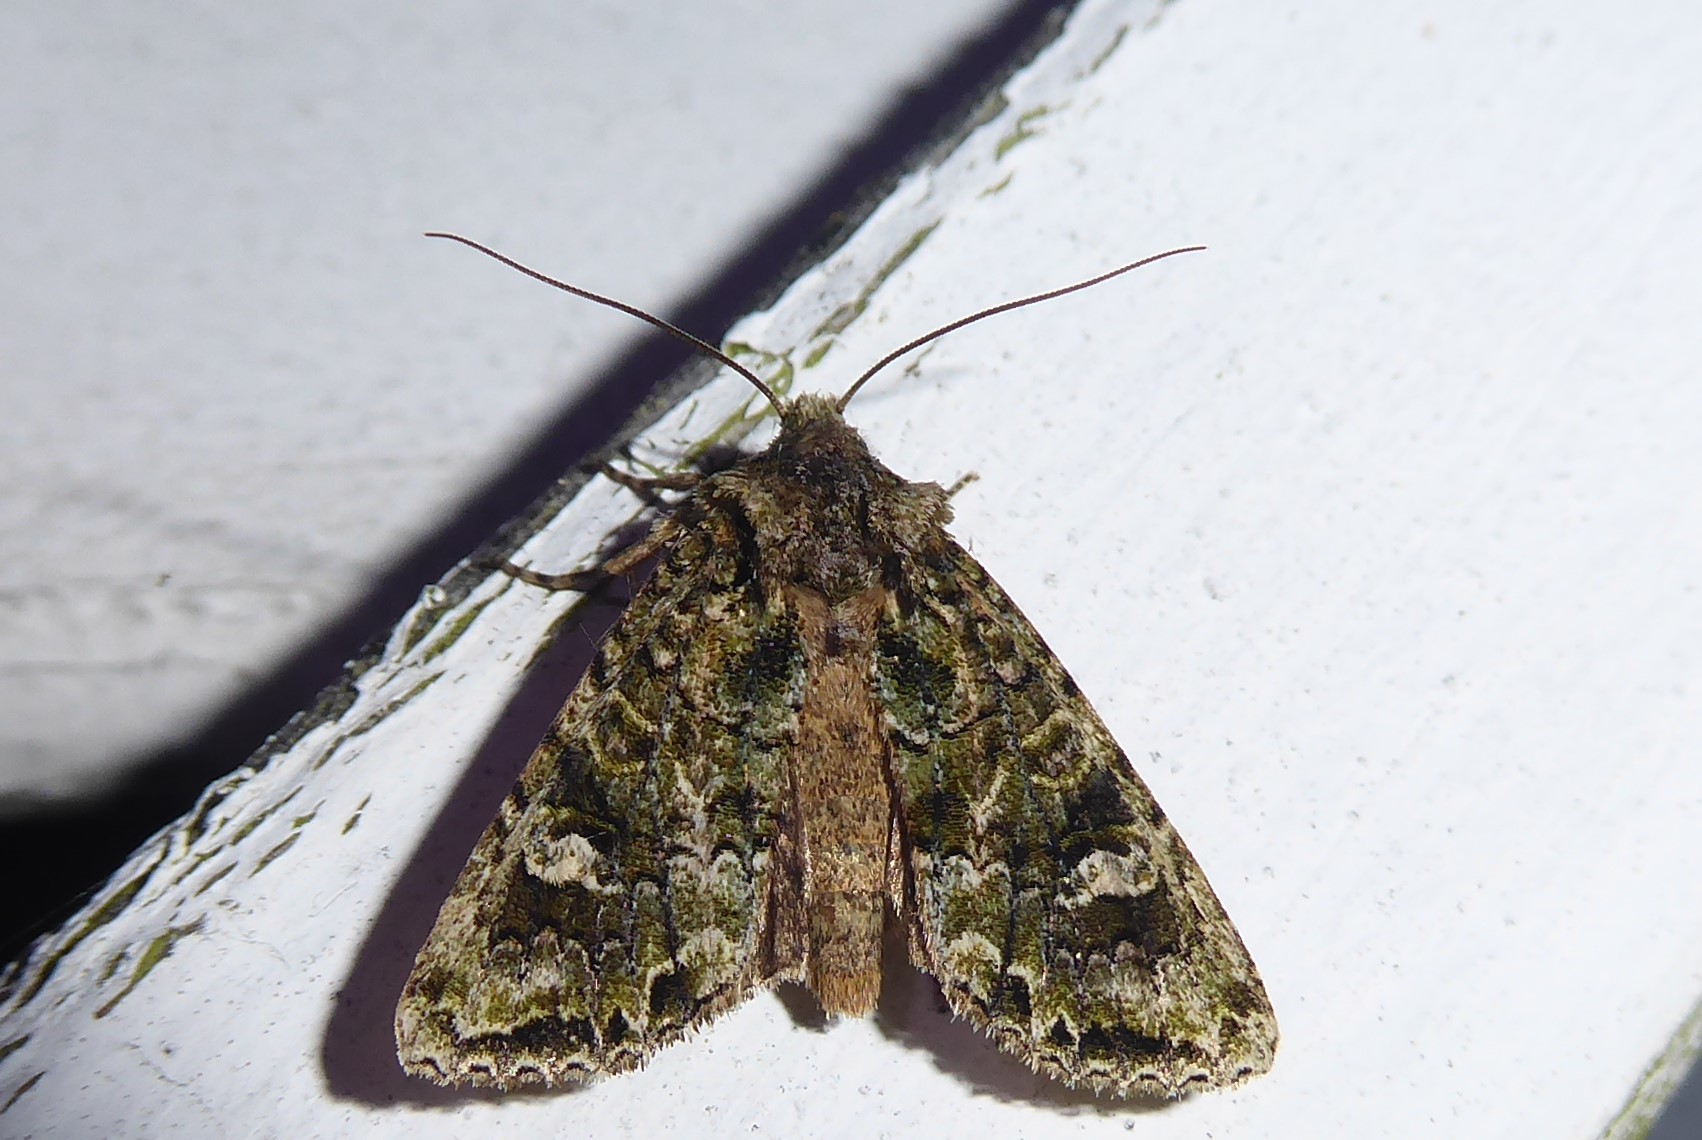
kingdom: Animalia
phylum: Arthropoda
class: Insecta
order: Lepidoptera
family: Noctuidae
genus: Ichneutica
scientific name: Ichneutica
